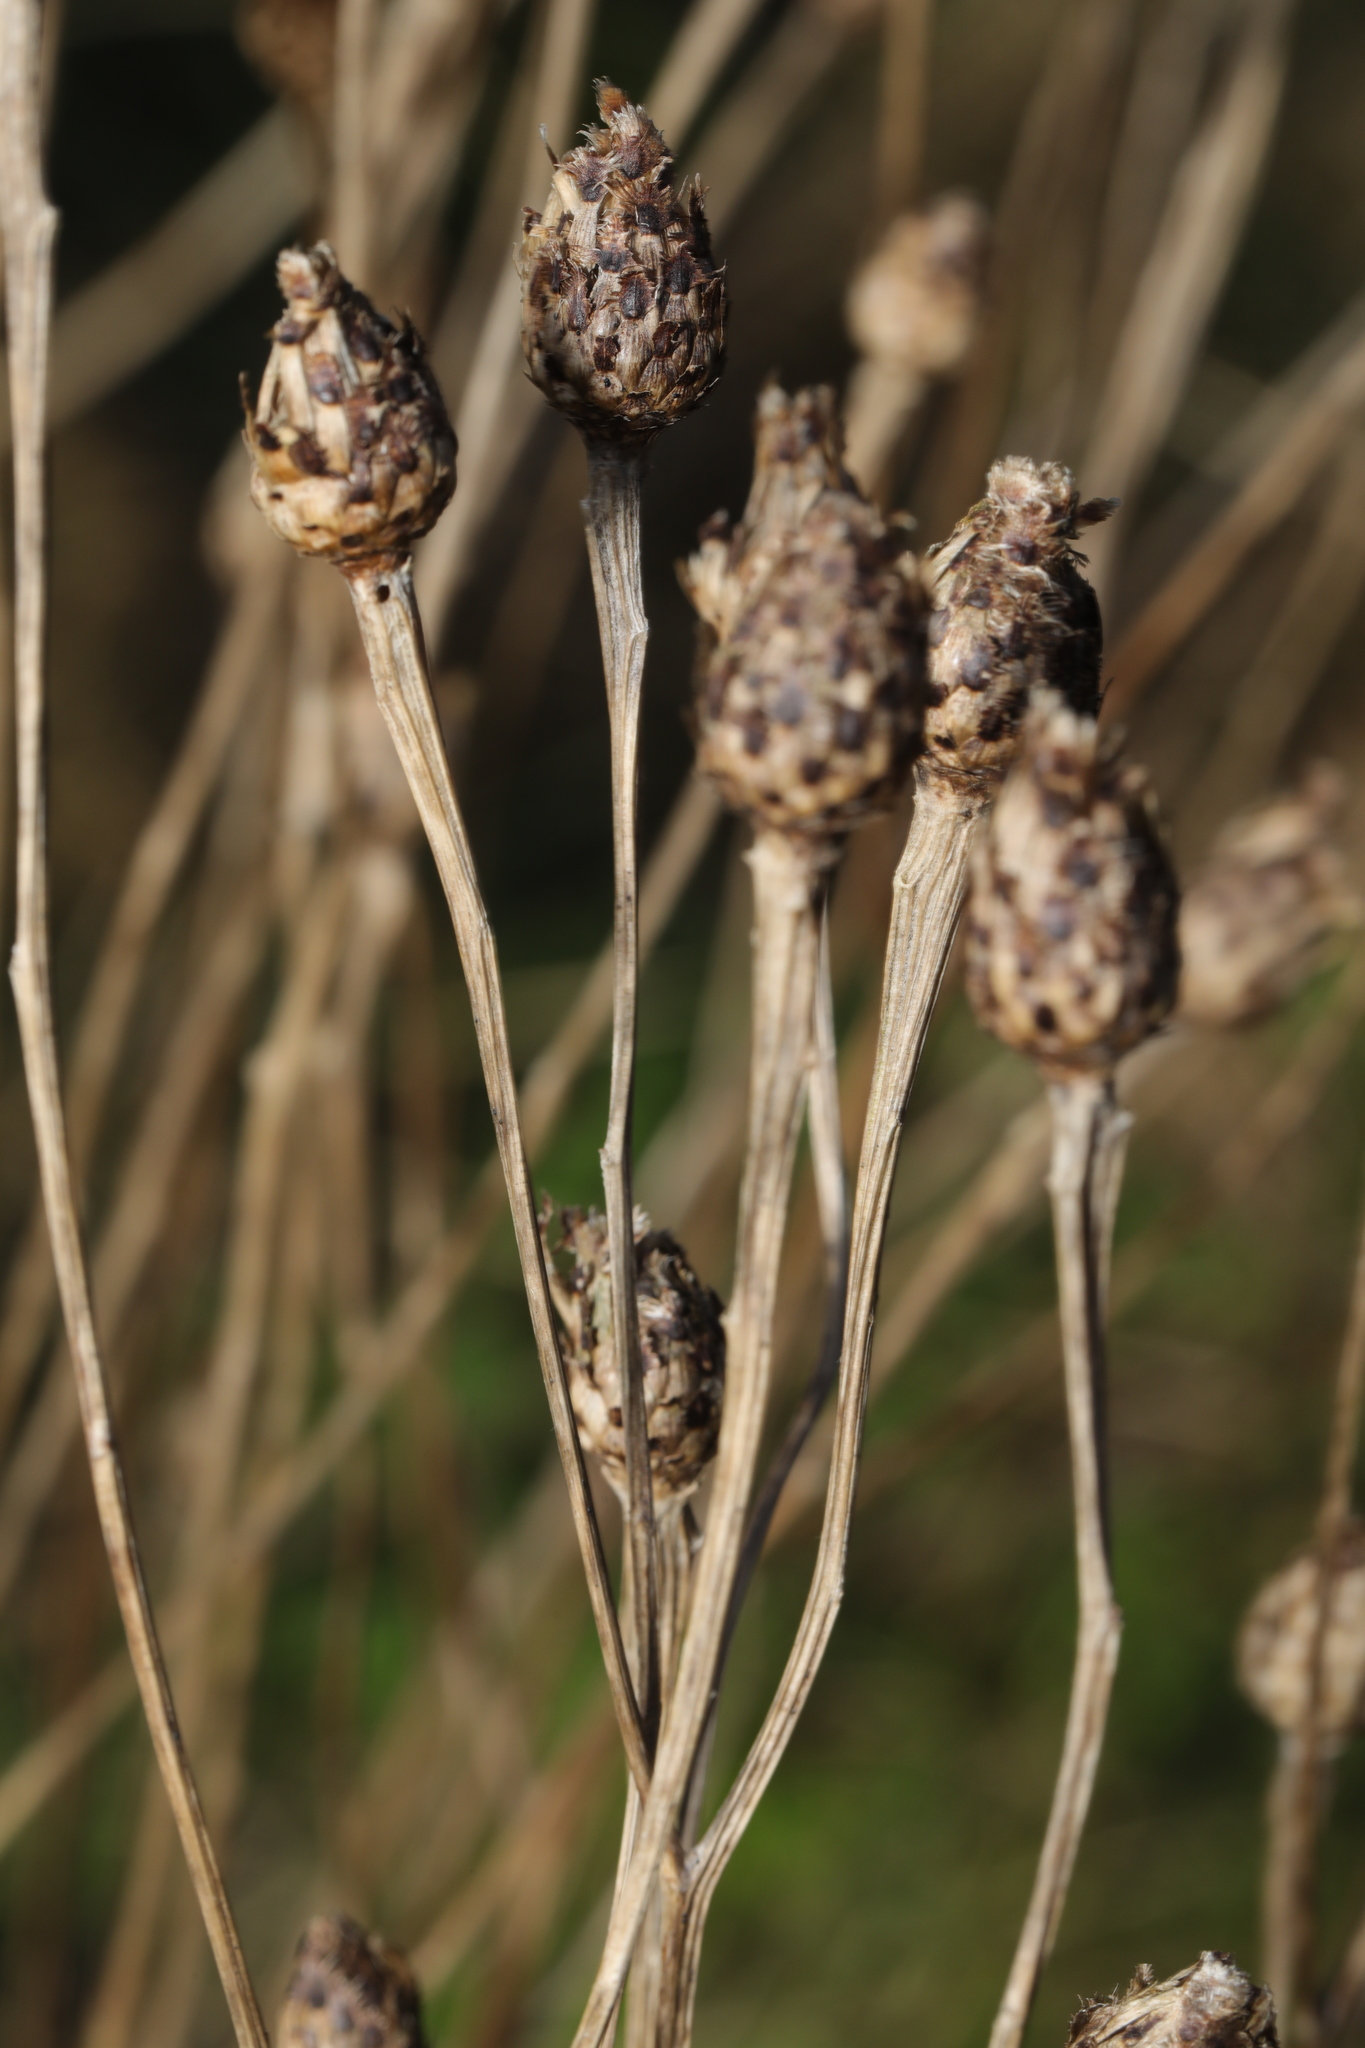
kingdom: Plantae
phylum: Tracheophyta
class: Magnoliopsida
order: Asterales
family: Asteraceae
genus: Centaurea
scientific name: Centaurea nigra
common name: Lesser knapweed
